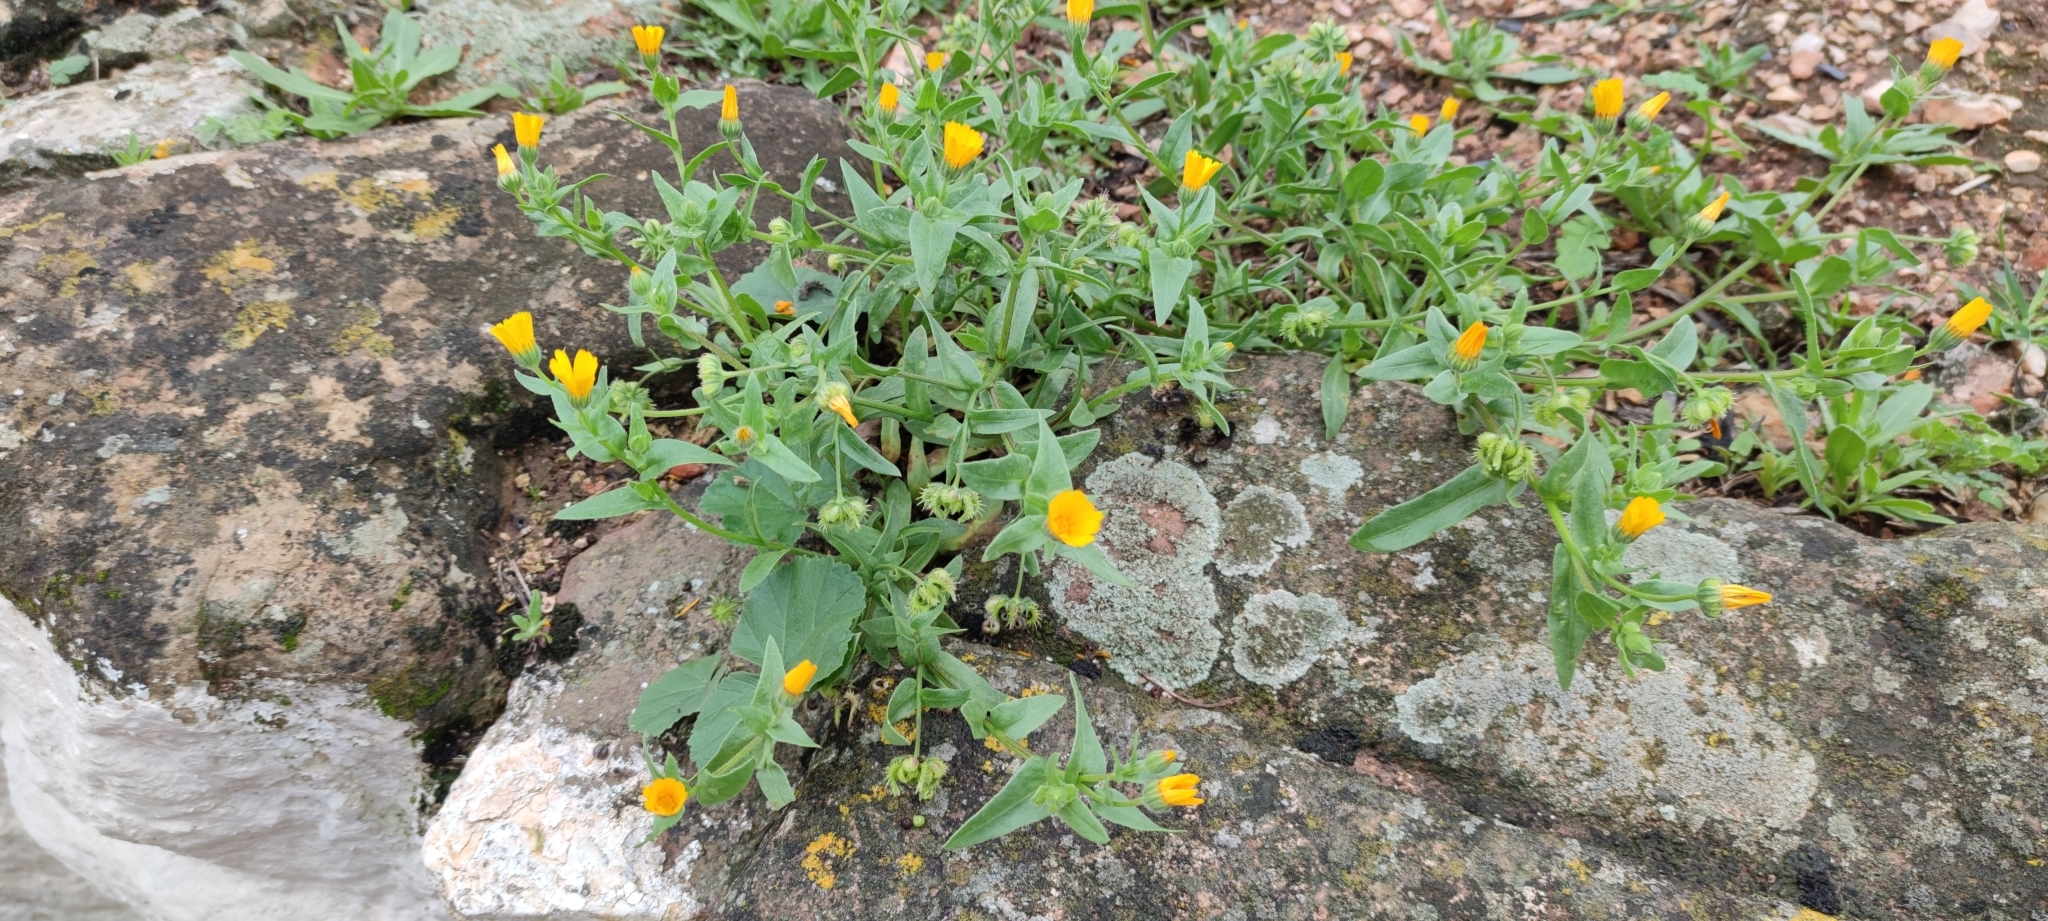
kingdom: Plantae
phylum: Tracheophyta
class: Magnoliopsida
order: Asterales
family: Asteraceae
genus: Calendula
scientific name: Calendula arvensis
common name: Field marigold
